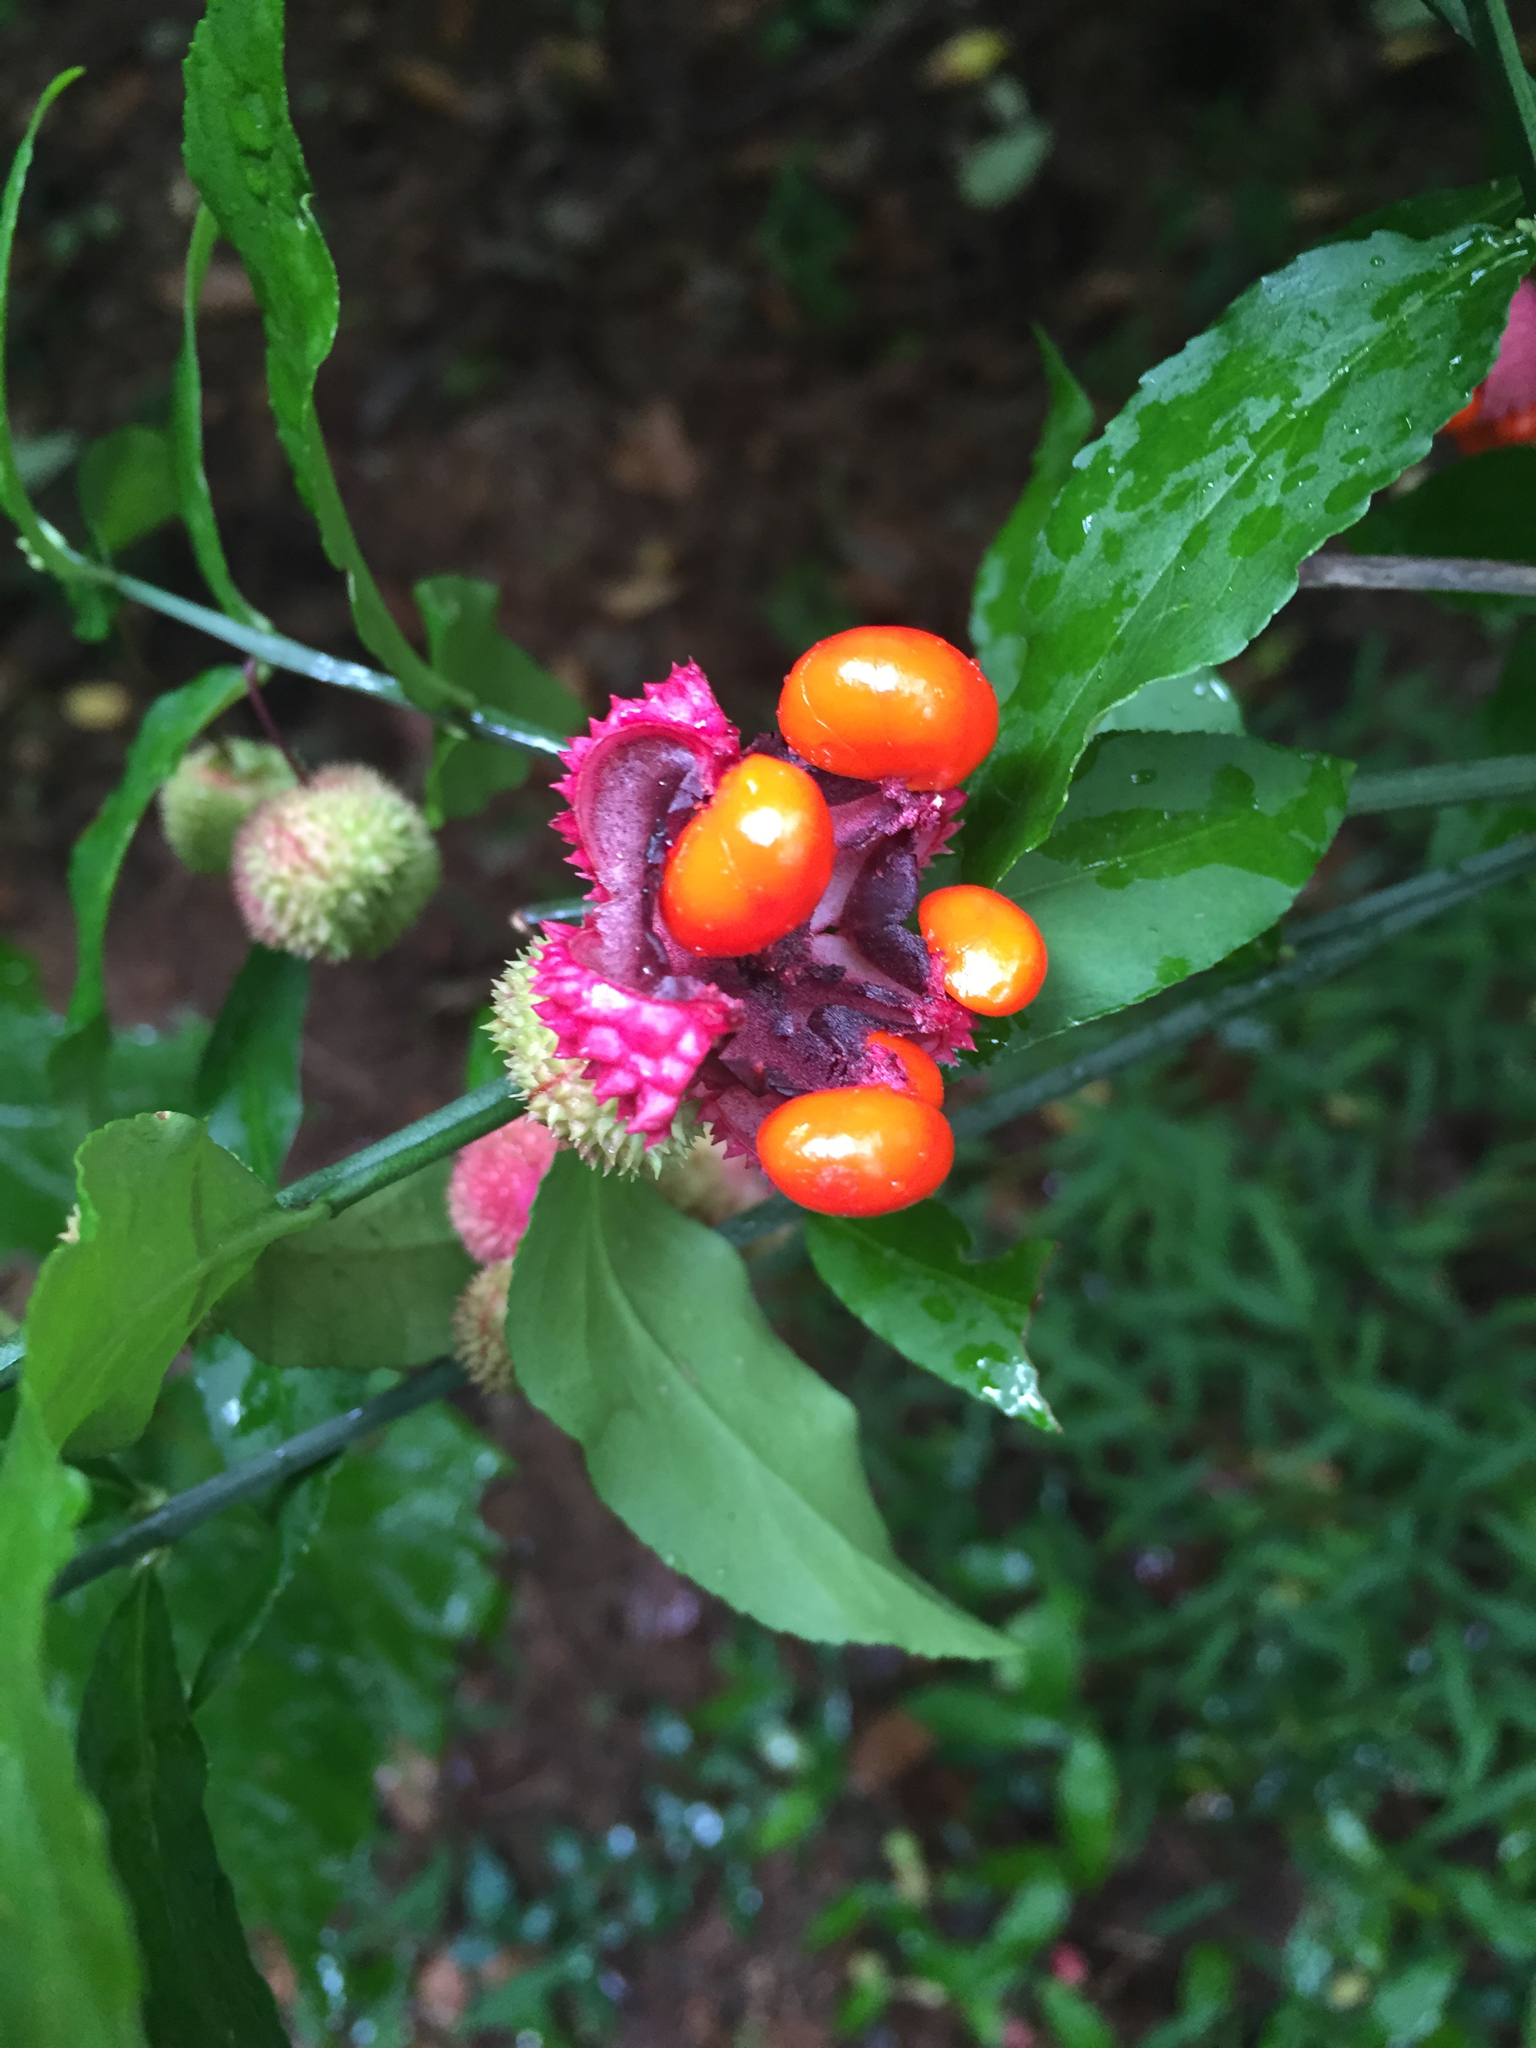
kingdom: Plantae
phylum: Tracheophyta
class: Magnoliopsida
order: Celastrales
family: Celastraceae
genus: Euonymus
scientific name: Euonymus americanus
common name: Bursting-heart
